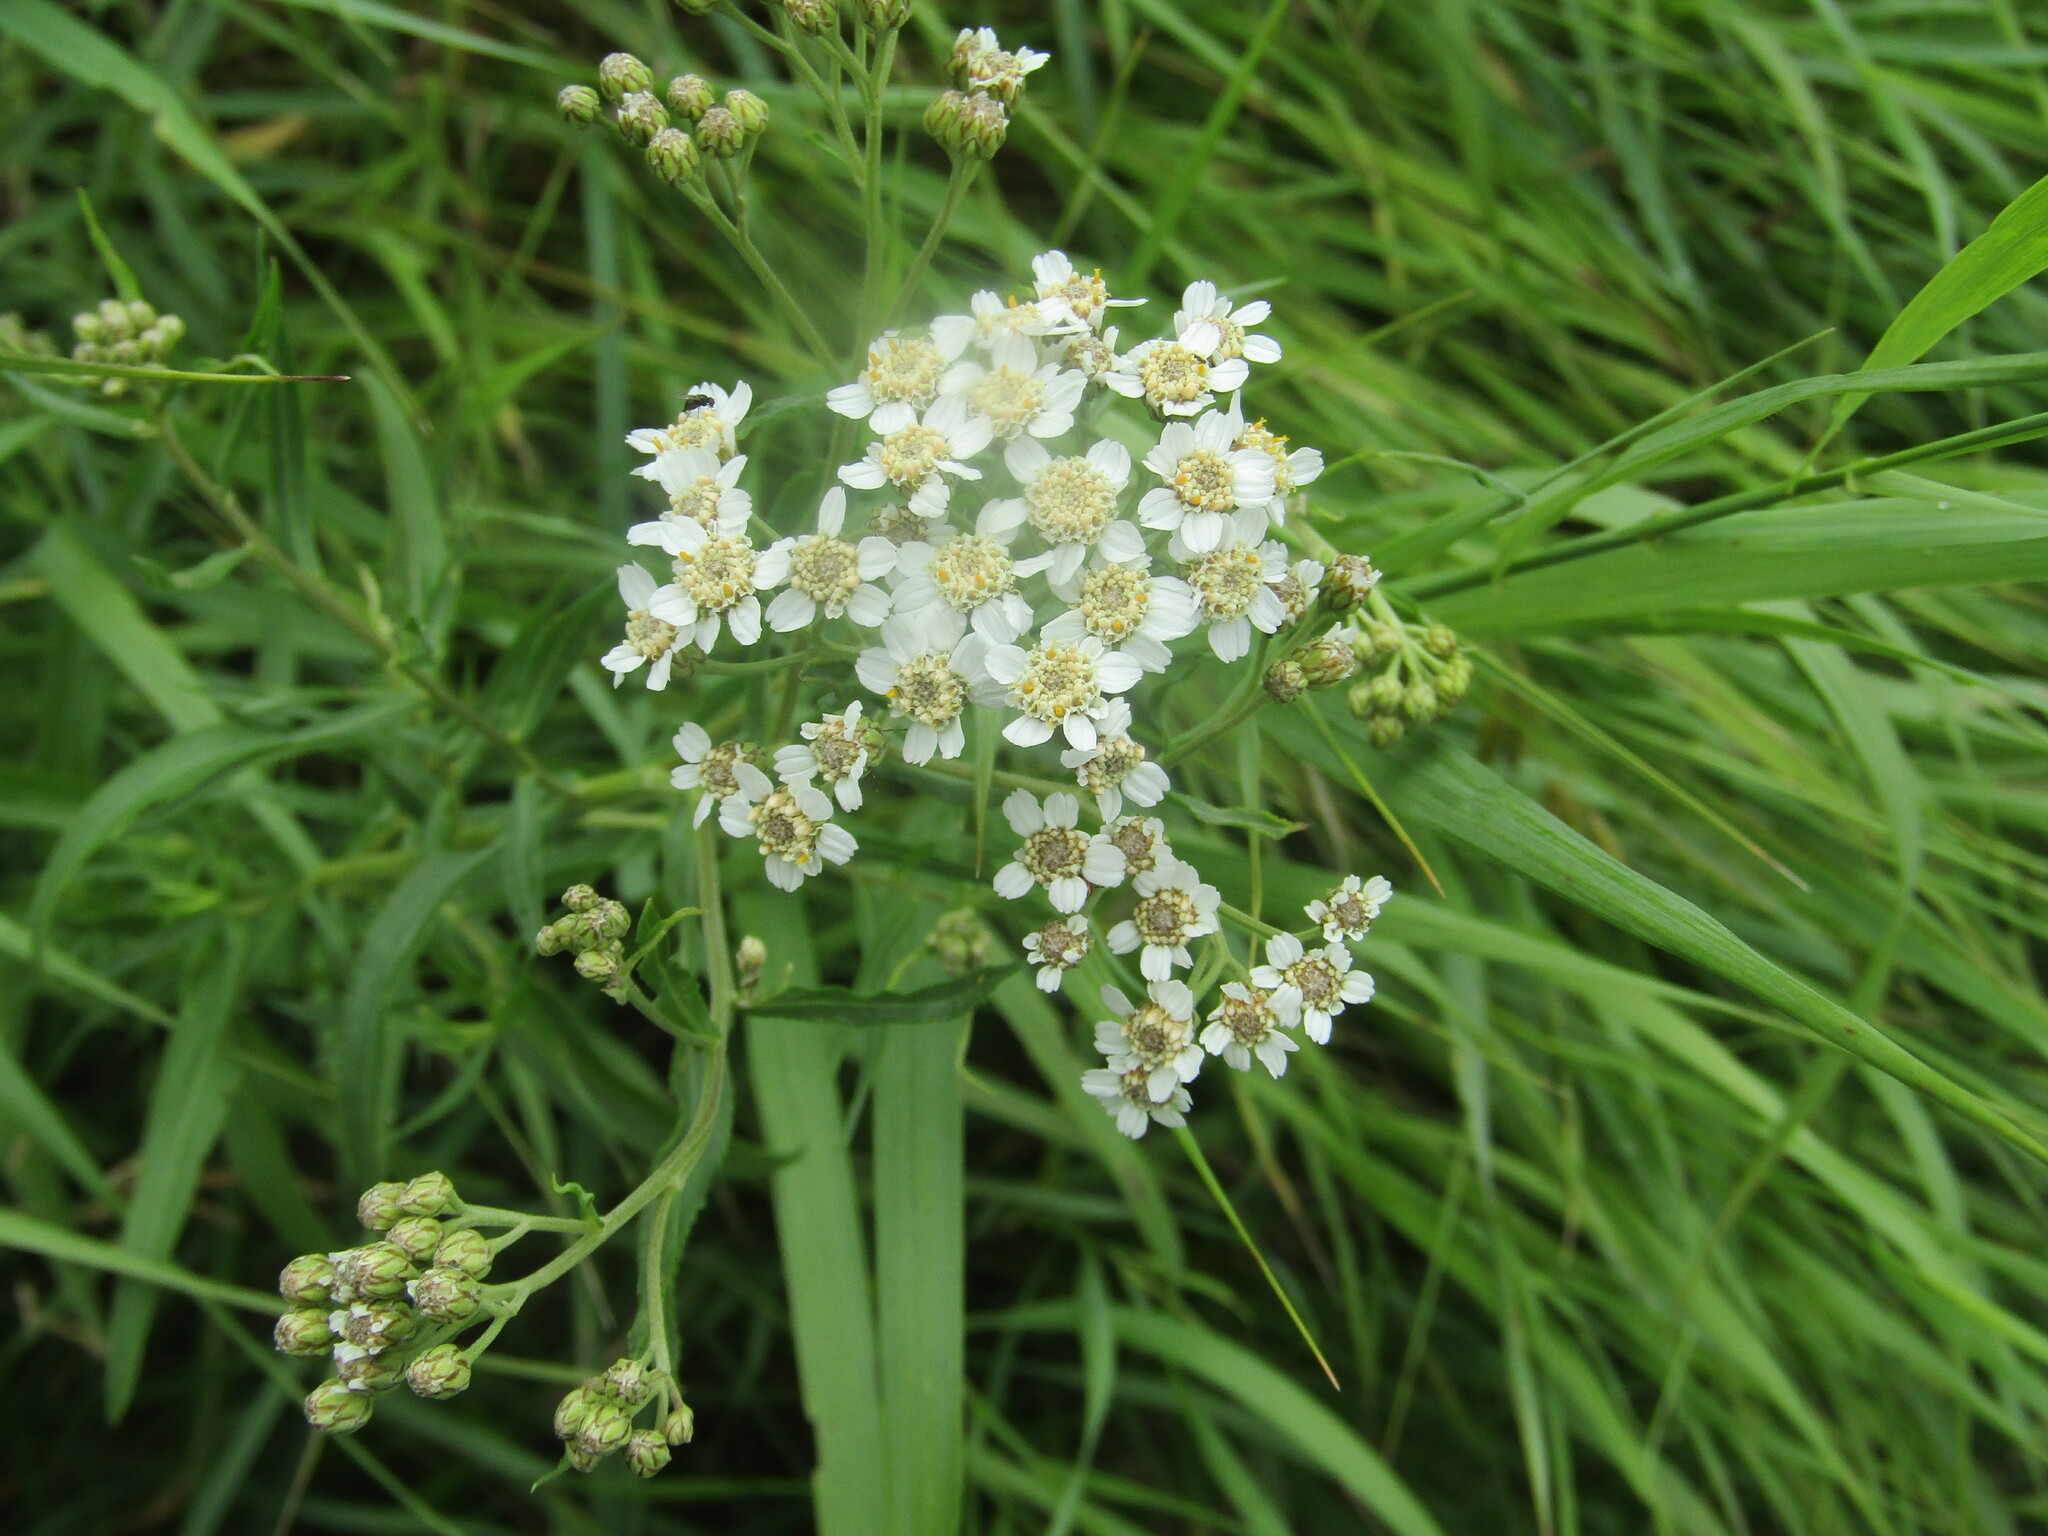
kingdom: Plantae
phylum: Tracheophyta
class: Magnoliopsida
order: Asterales
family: Asteraceae
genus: Achillea
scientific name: Achillea salicifolia
